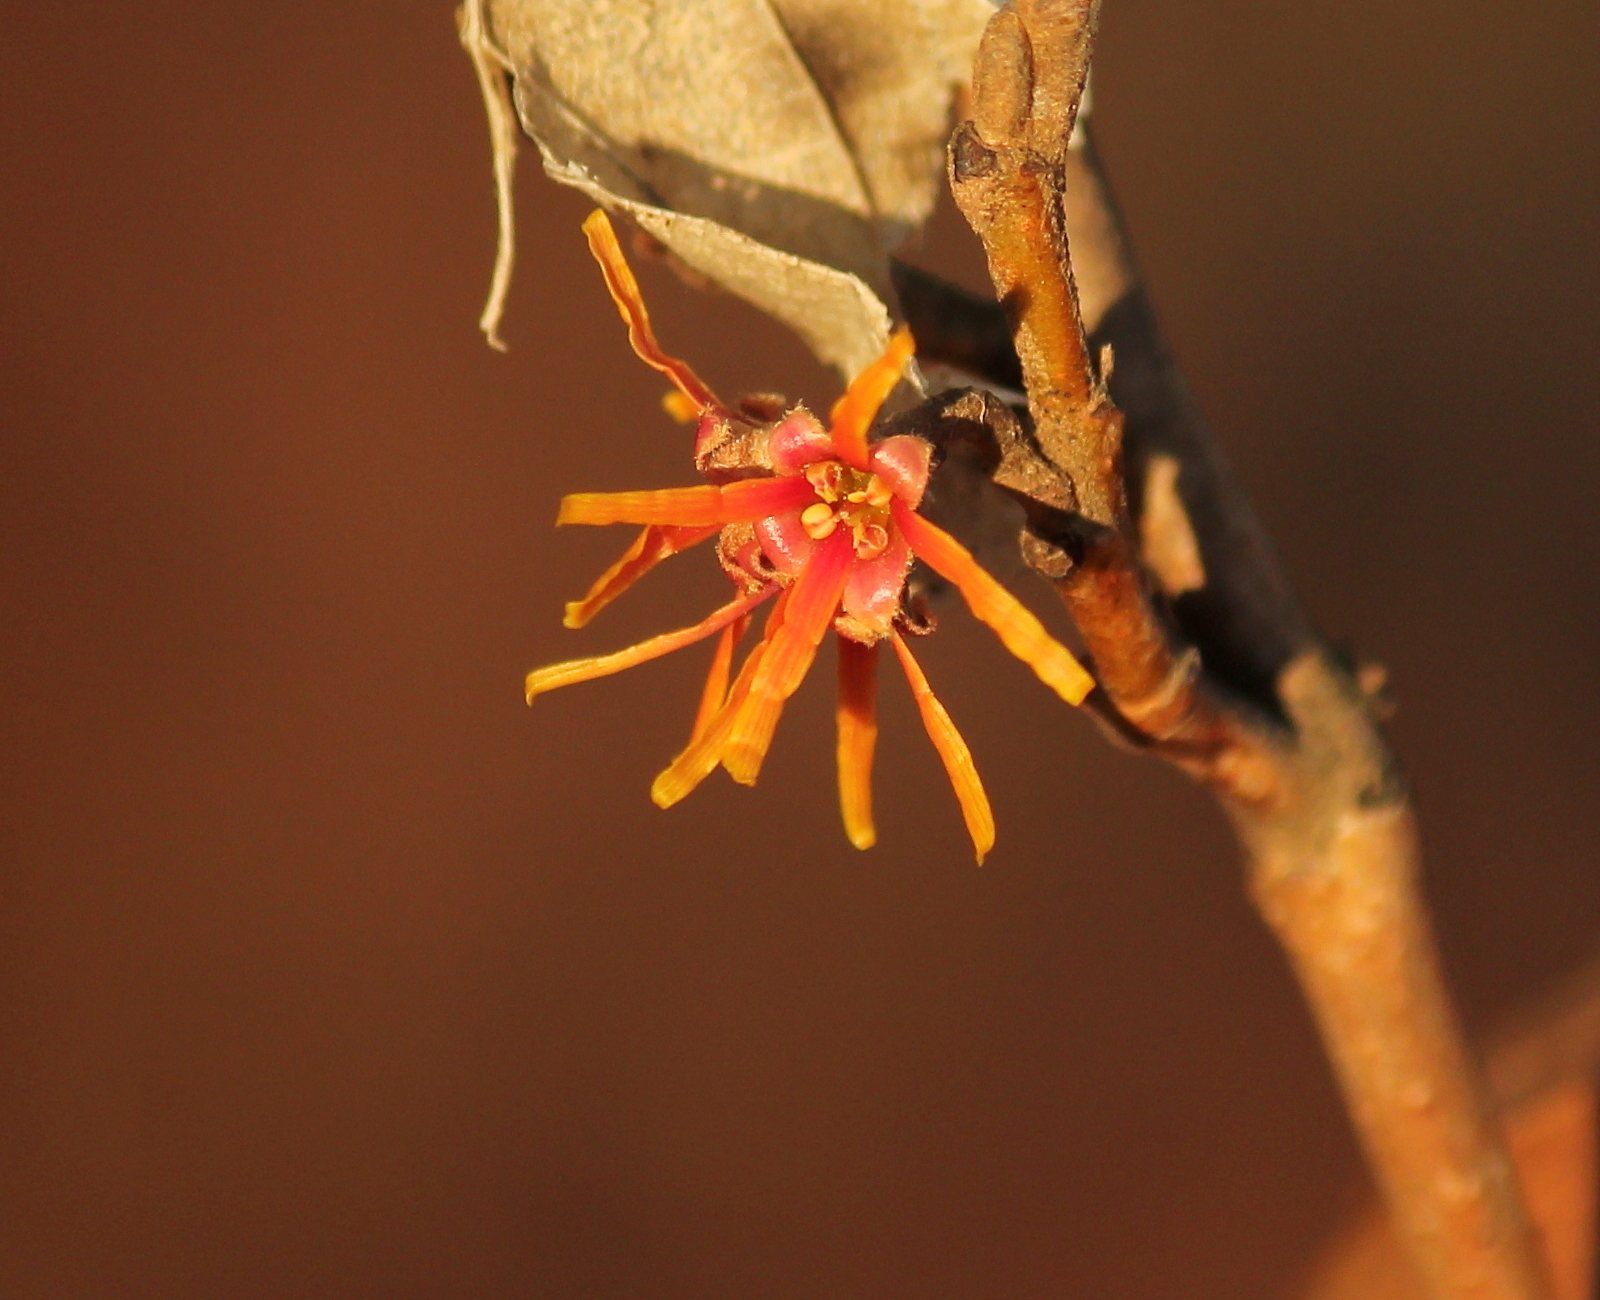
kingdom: Plantae
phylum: Tracheophyta
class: Magnoliopsida
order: Saxifragales
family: Hamamelidaceae
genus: Hamamelis
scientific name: Hamamelis vernalis
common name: Ozark witch-hazel
